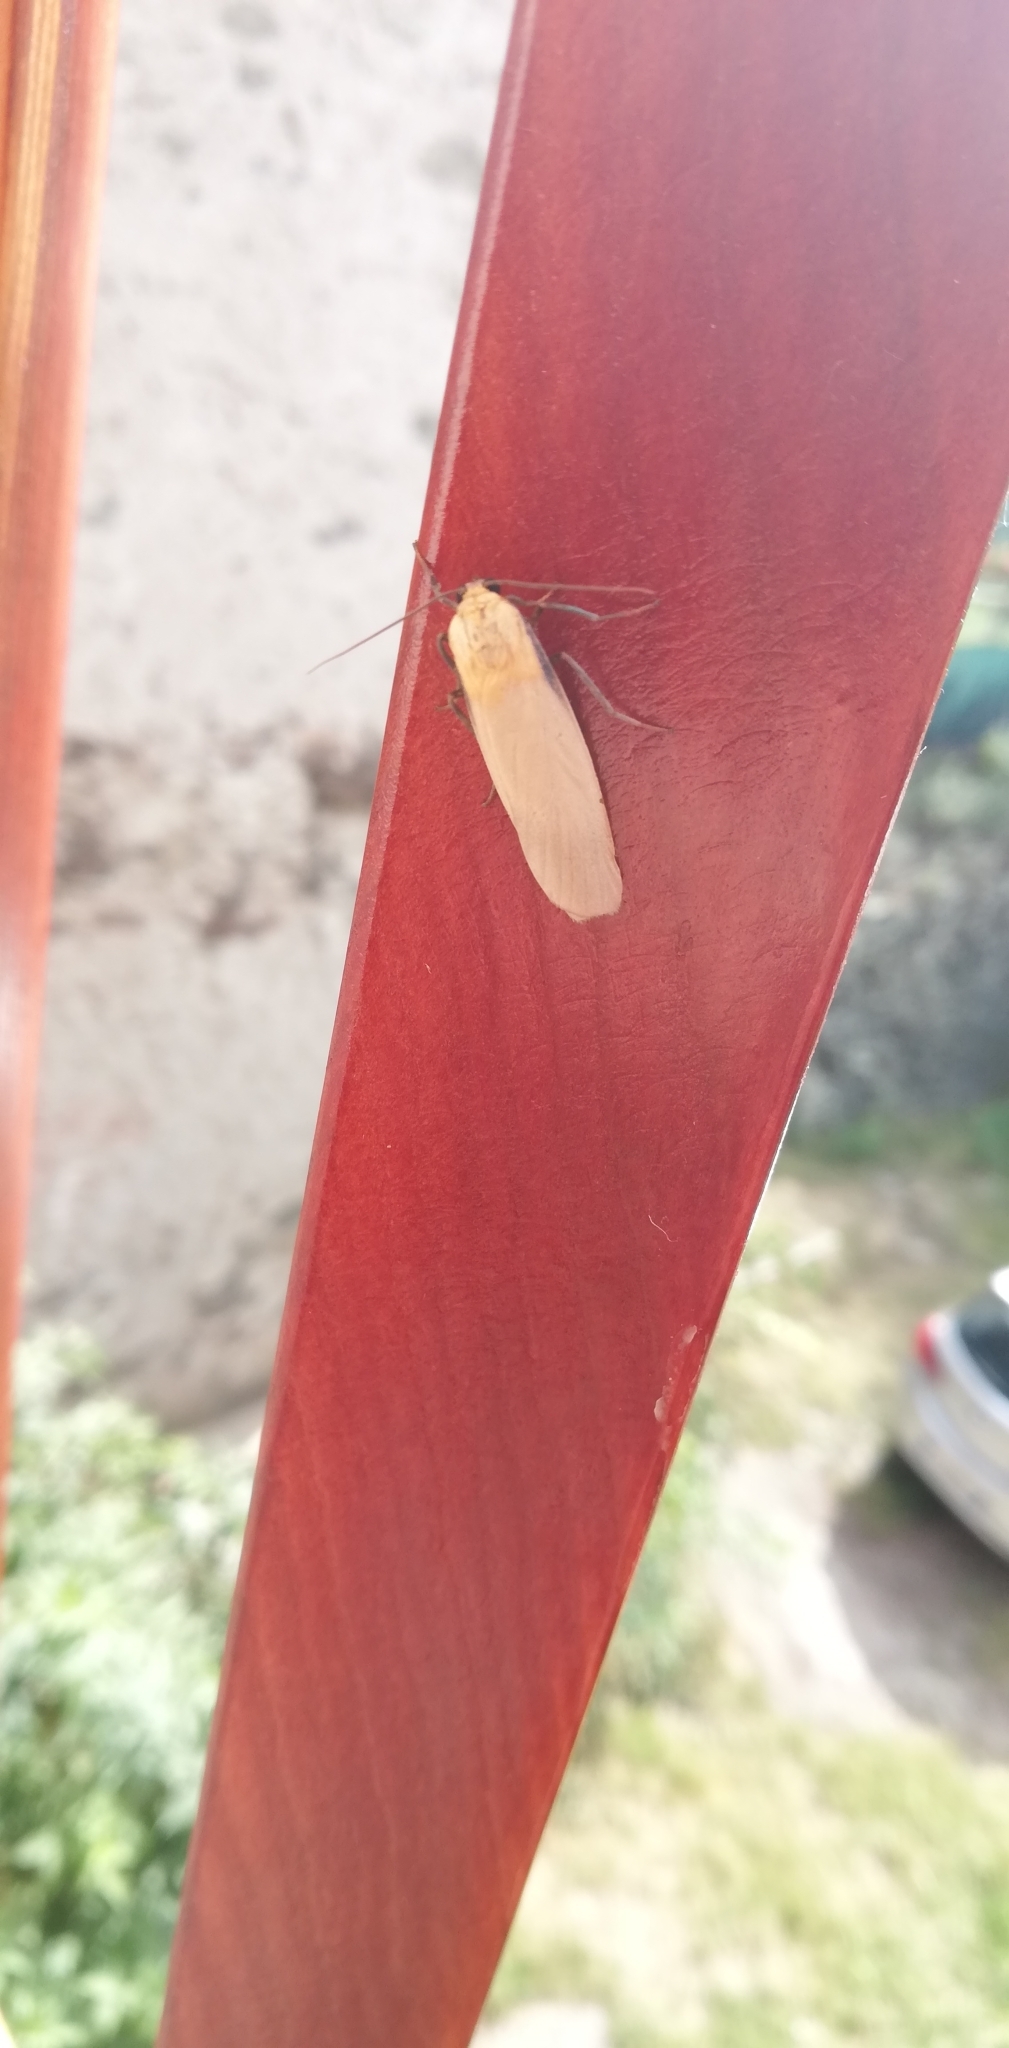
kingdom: Animalia
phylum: Arthropoda
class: Insecta
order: Lepidoptera
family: Erebidae
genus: Lithosia
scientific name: Lithosia quadra
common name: Four-spotted footman
